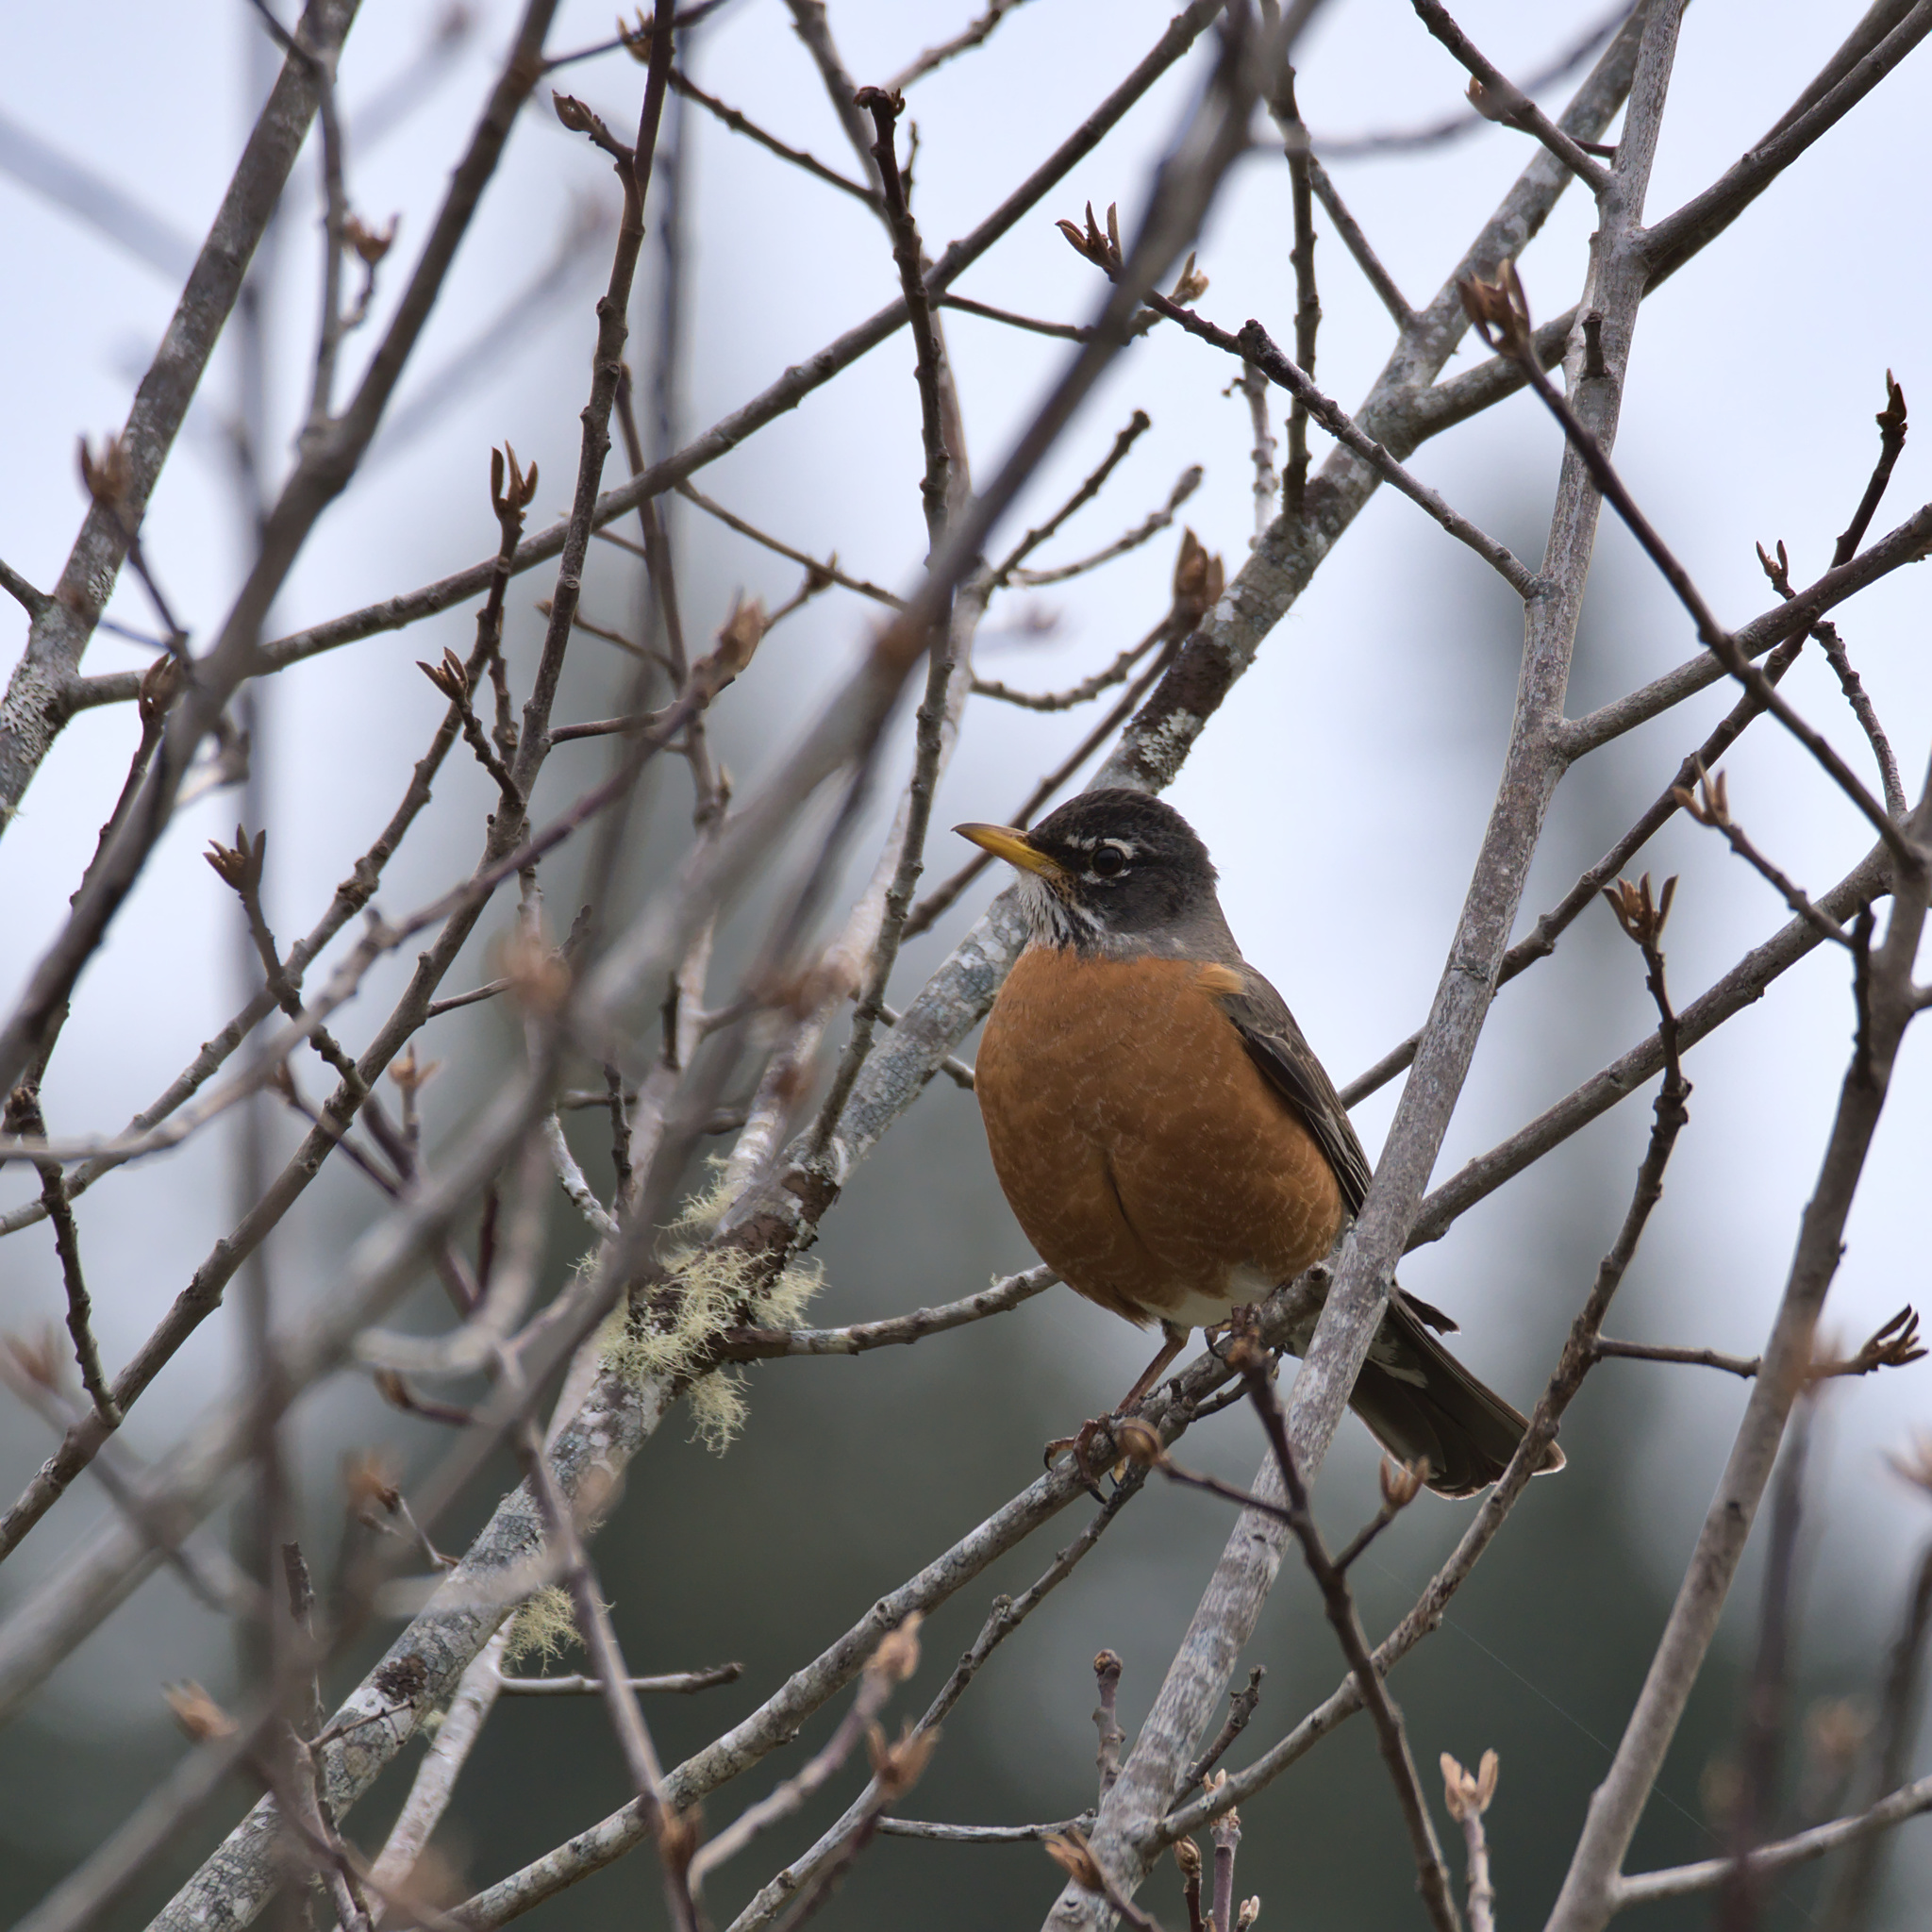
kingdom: Animalia
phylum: Chordata
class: Aves
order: Passeriformes
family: Turdidae
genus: Turdus
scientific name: Turdus migratorius
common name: American robin
